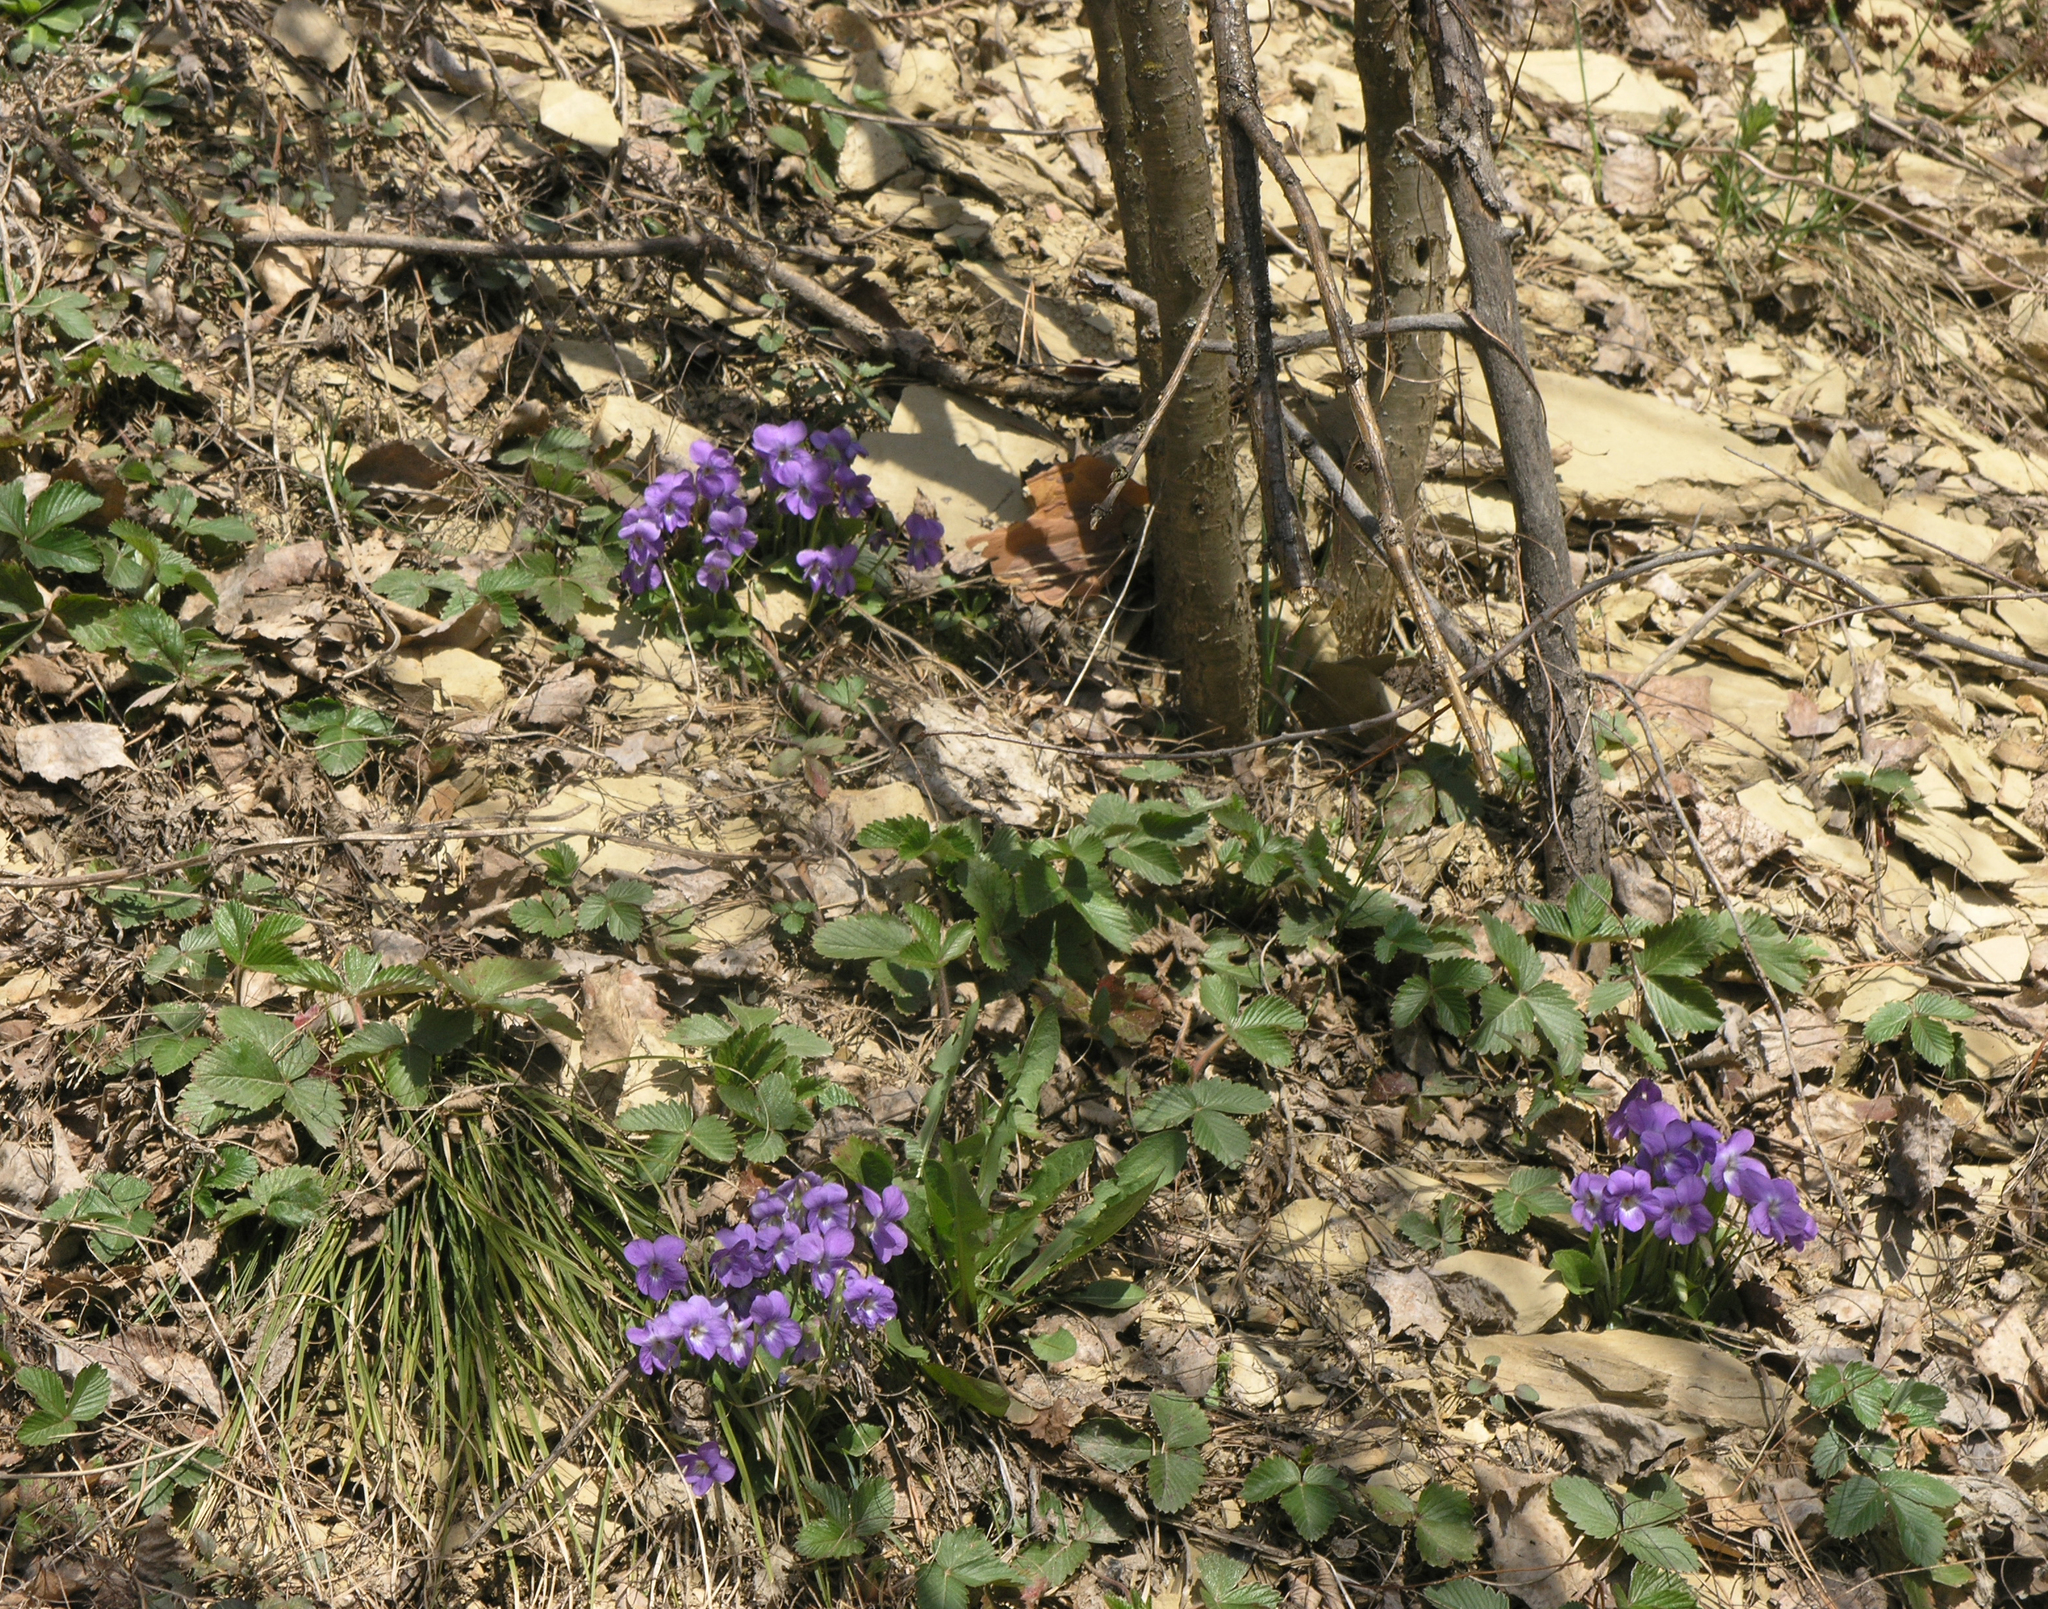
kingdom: Plantae
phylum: Tracheophyta
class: Magnoliopsida
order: Malpighiales
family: Violaceae
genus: Viola
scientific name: Viola hirta
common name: Hairy violet
